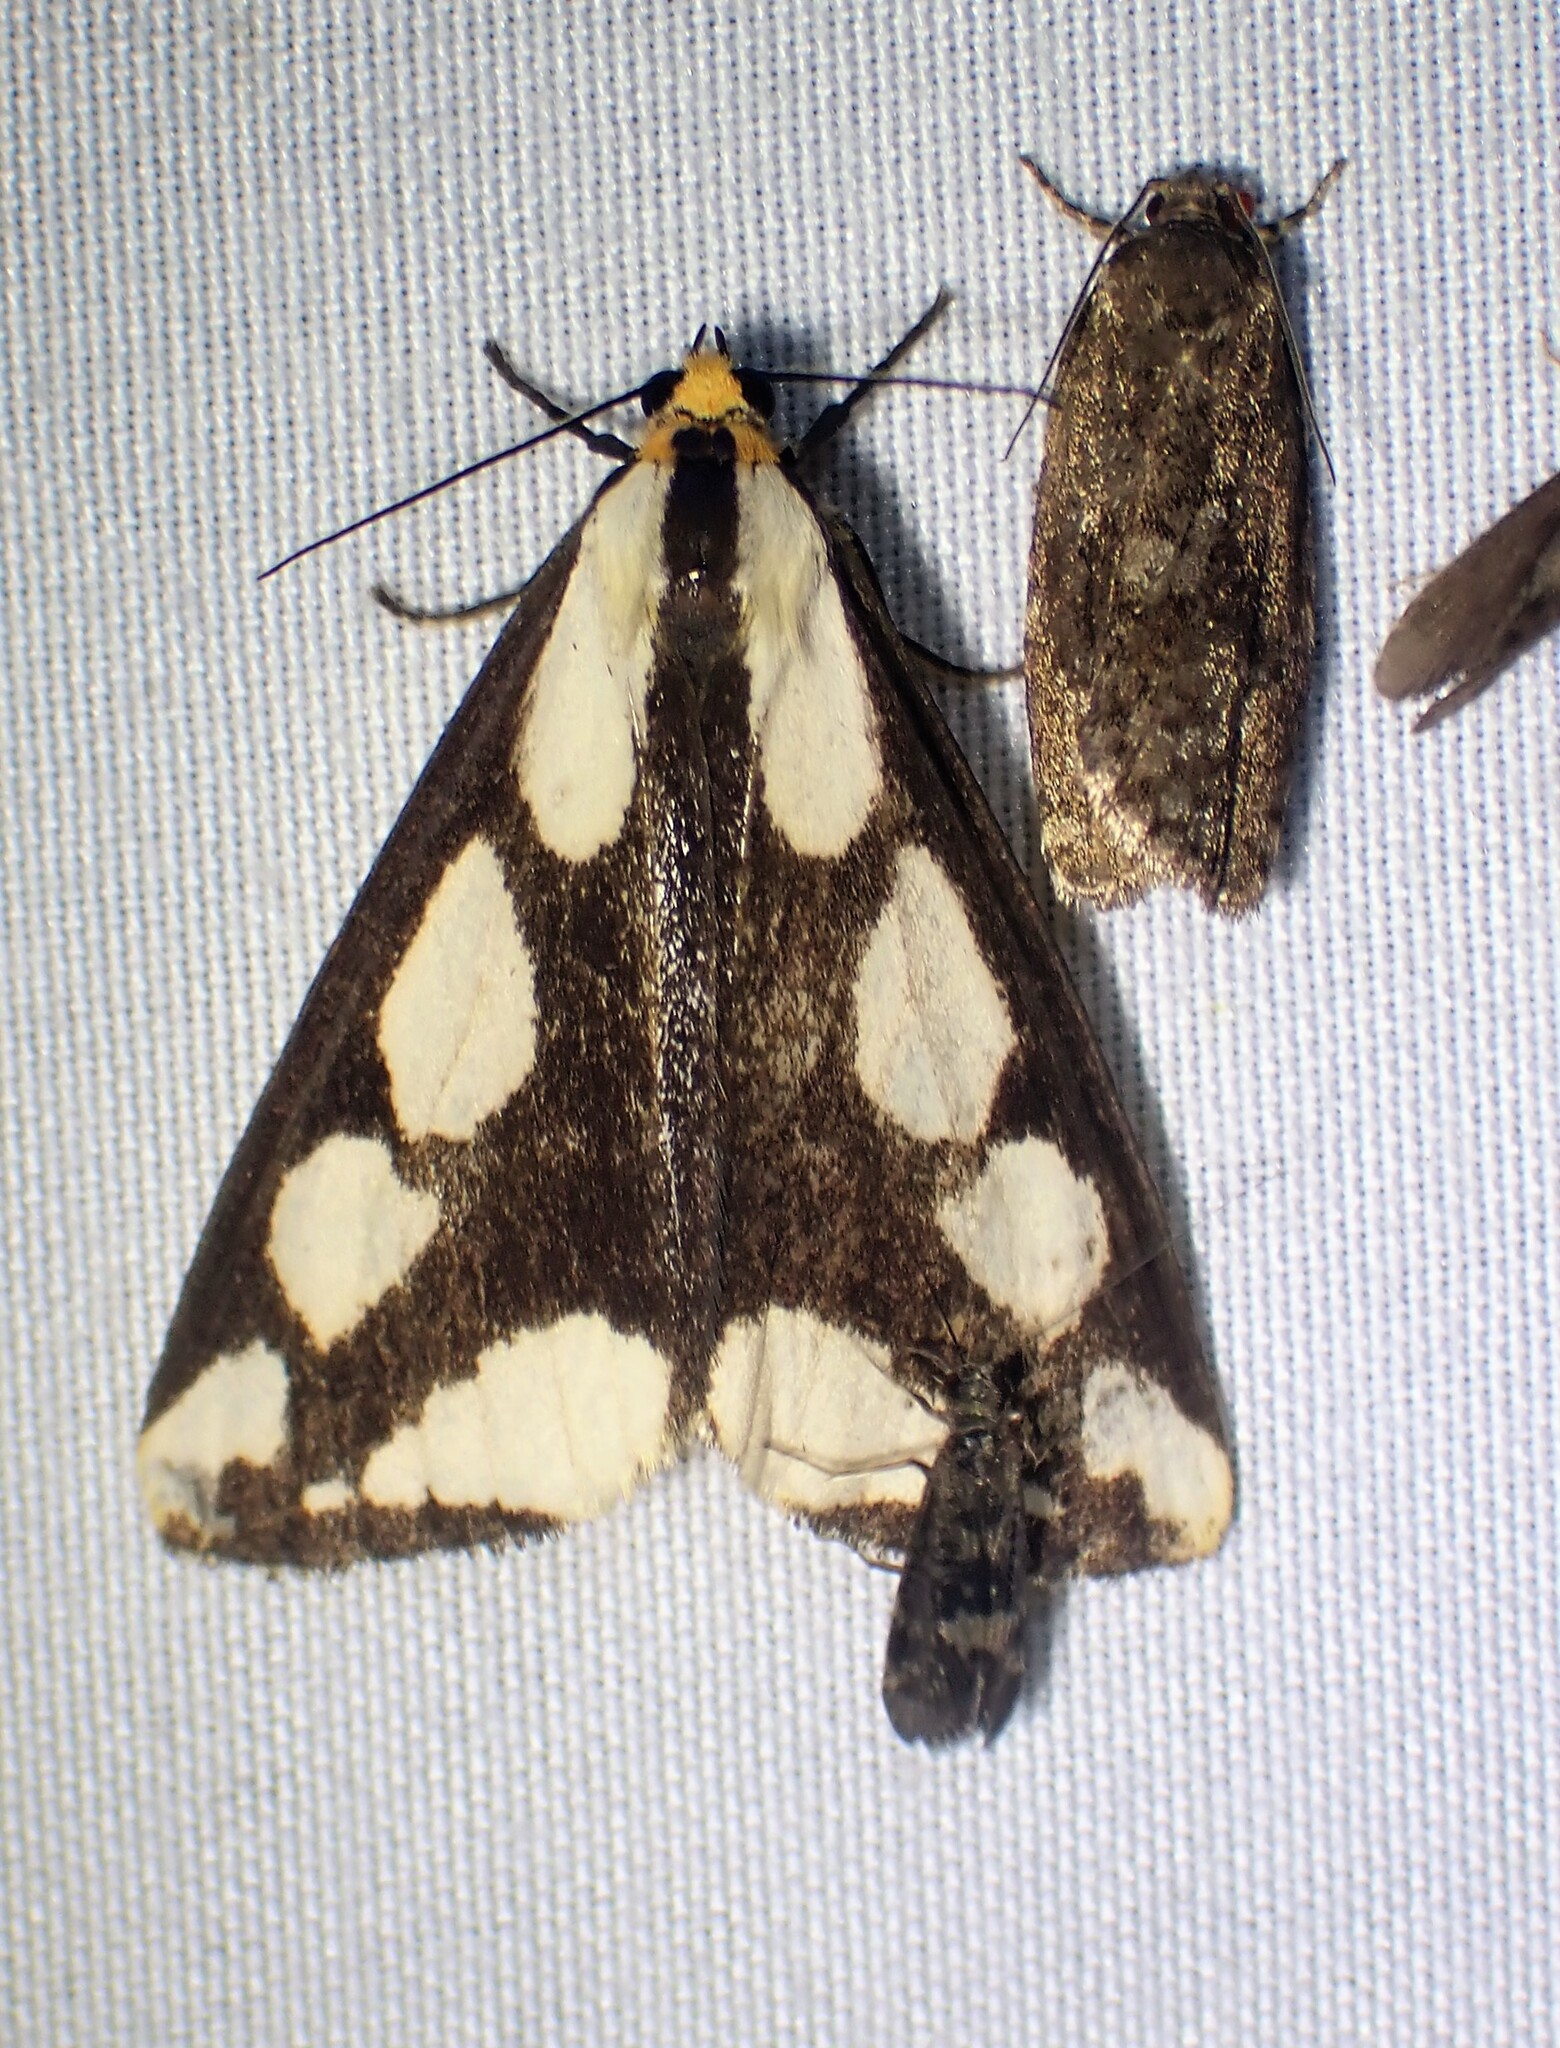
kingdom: Animalia
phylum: Arthropoda
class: Insecta
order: Lepidoptera
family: Erebidae
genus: Haploa
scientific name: Haploa lecontei
